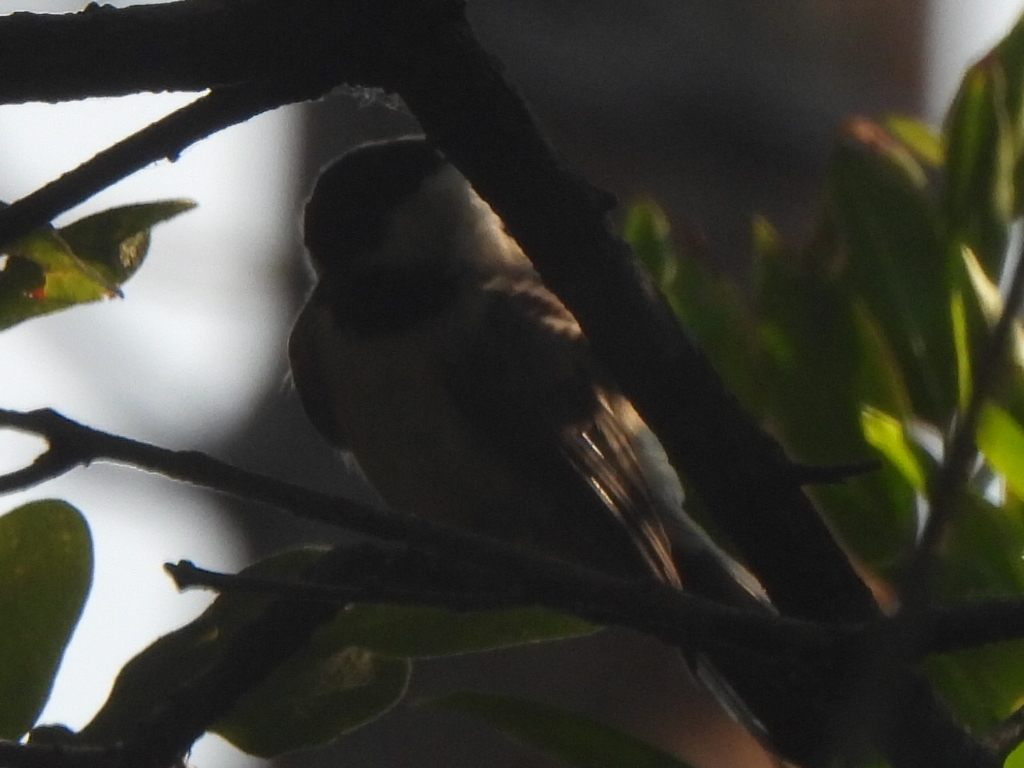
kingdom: Animalia
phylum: Chordata
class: Aves
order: Passeriformes
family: Paridae
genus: Poecile
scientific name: Poecile carolinensis
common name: Carolina chickadee
